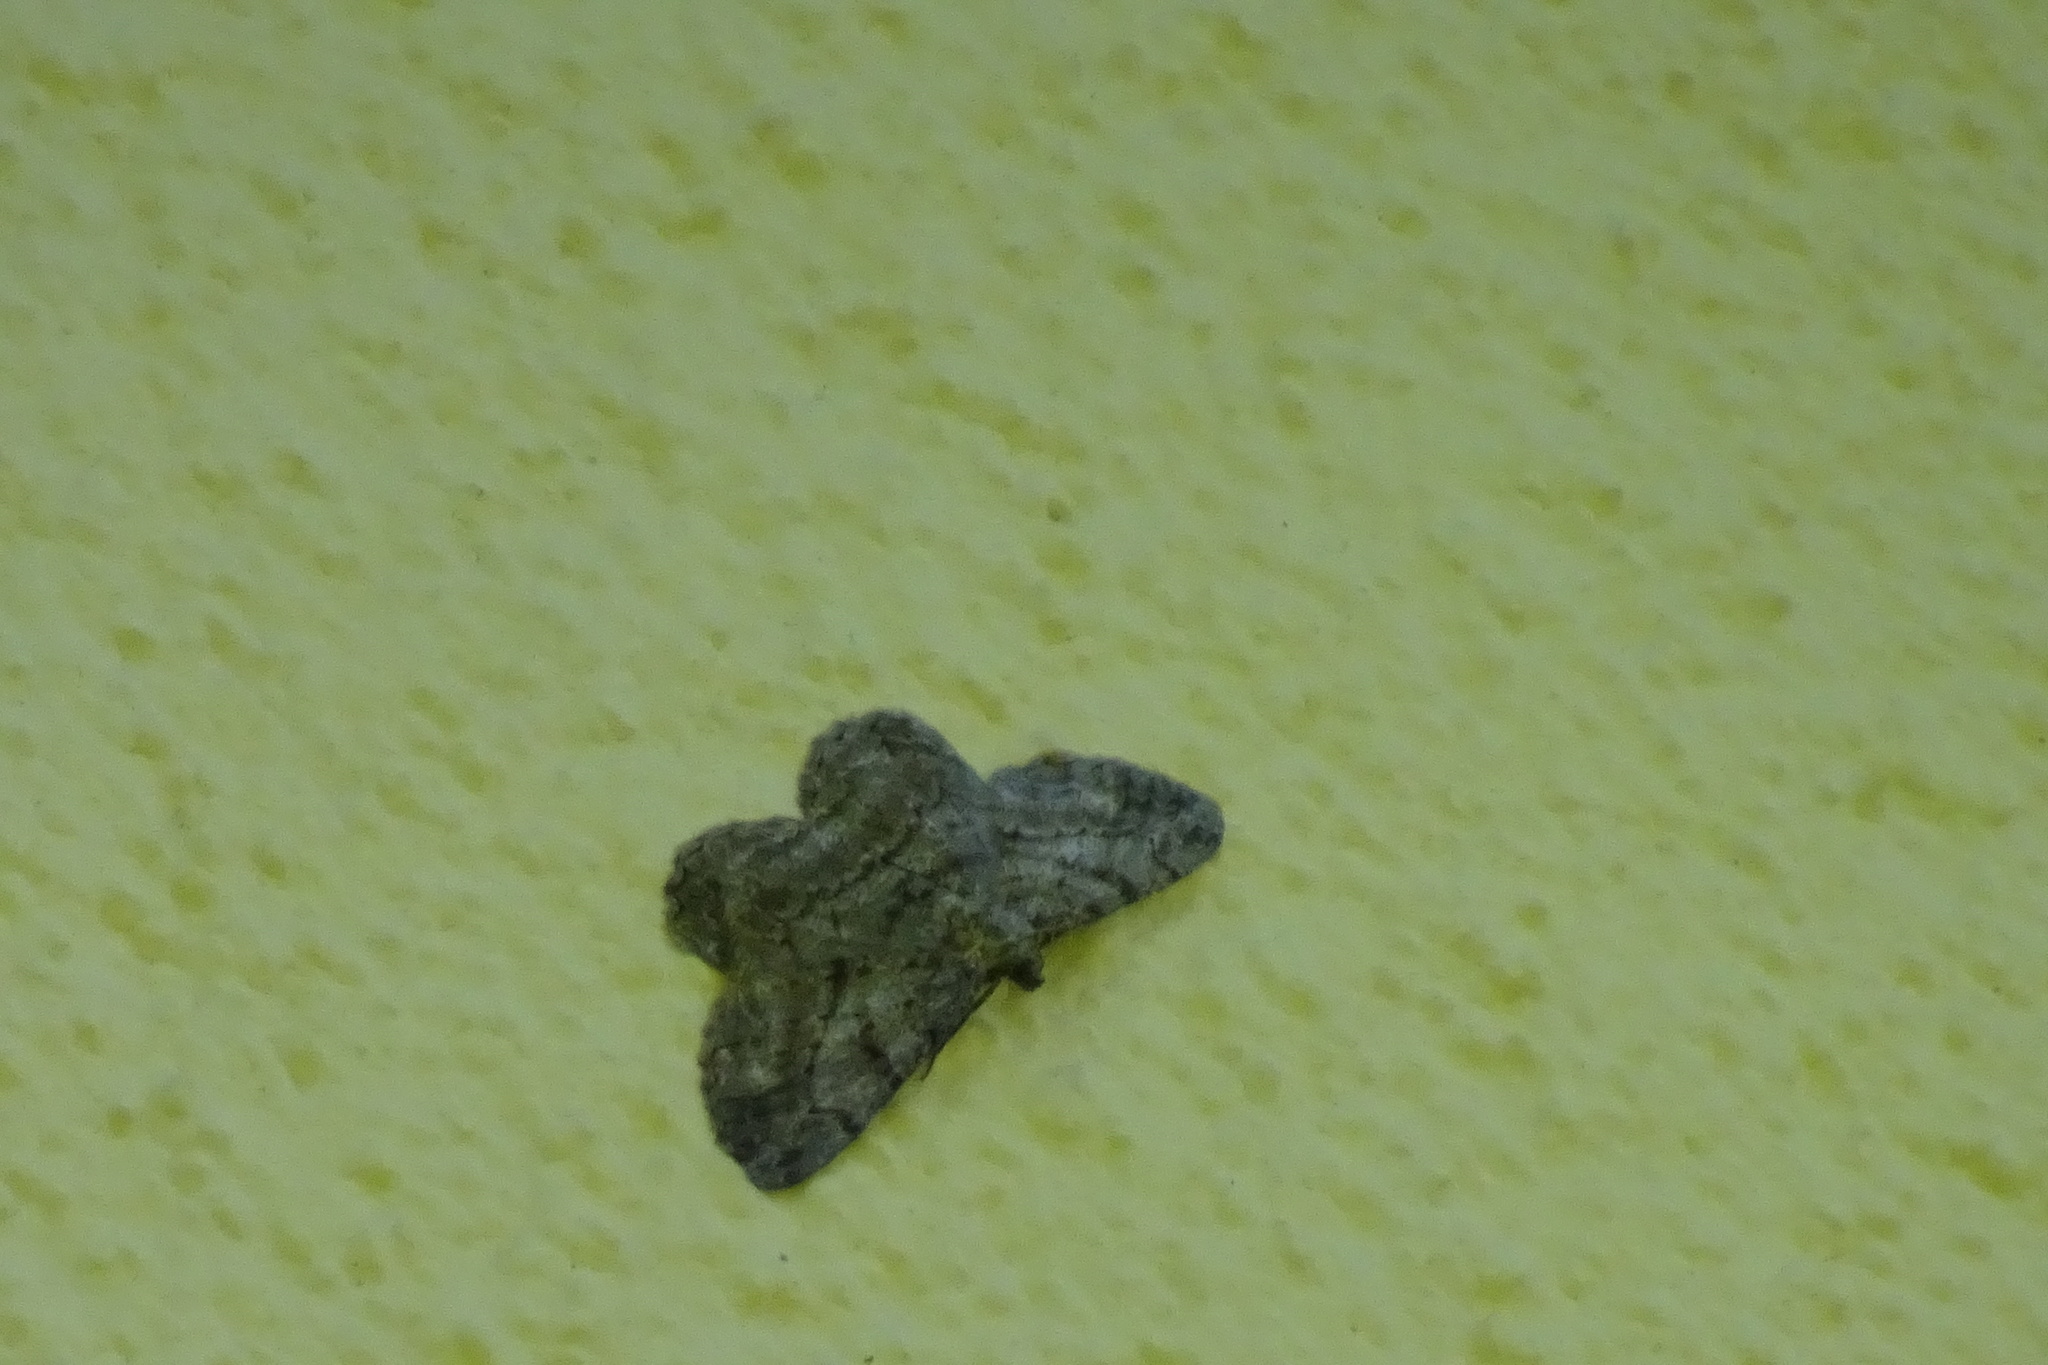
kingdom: Animalia
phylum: Arthropoda
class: Insecta
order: Lepidoptera
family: Geometridae
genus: Peribatodes
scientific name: Peribatodes rhomboidaria
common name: Willow beauty
